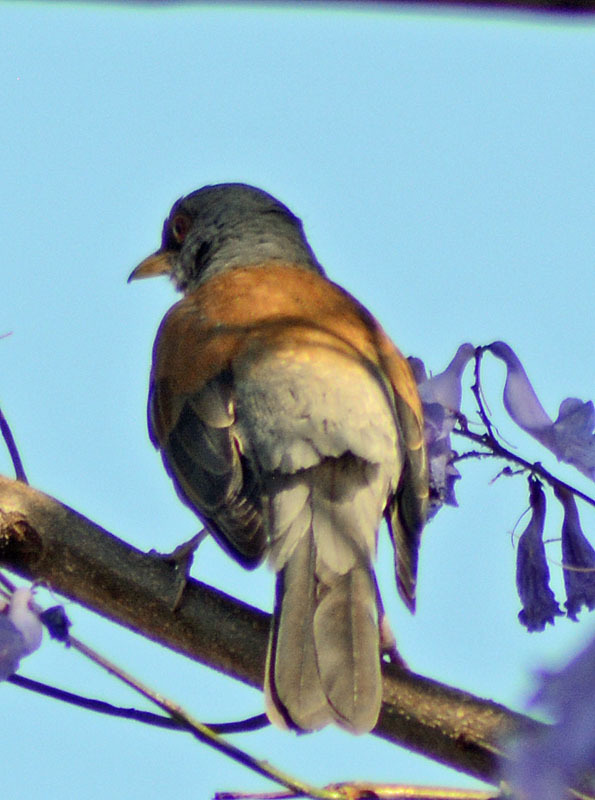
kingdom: Animalia
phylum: Chordata
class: Aves
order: Passeriformes
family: Turdidae
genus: Turdus
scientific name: Turdus rufopalliatus
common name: Rufous-backed robin
